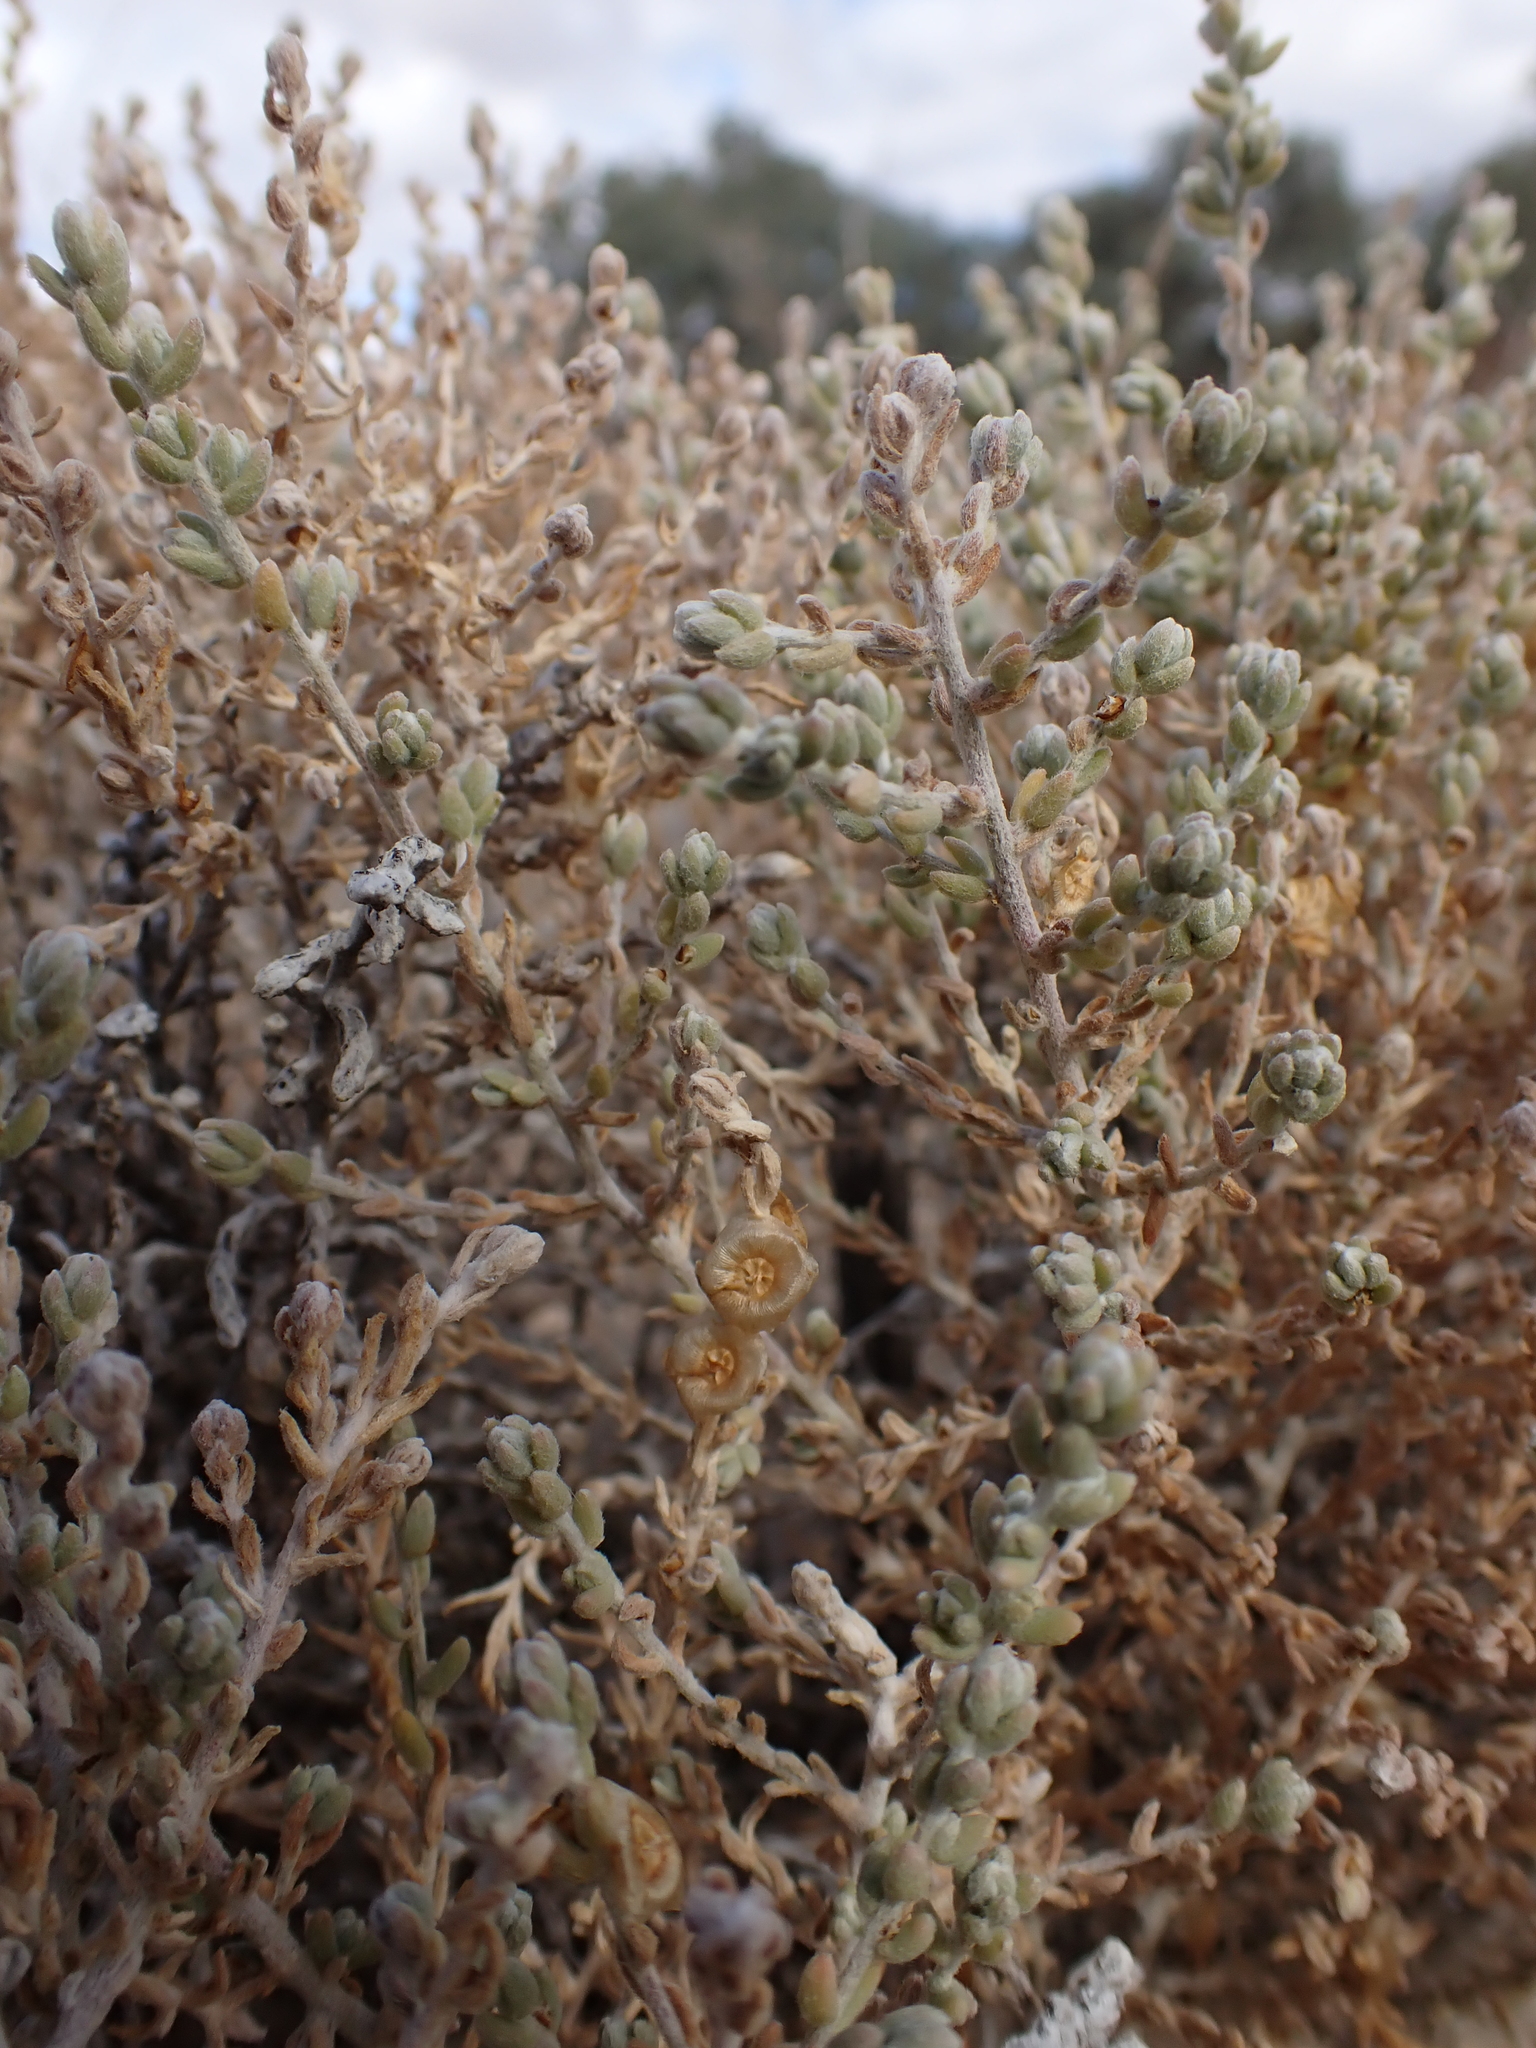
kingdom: Plantae
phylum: Tracheophyta
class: Magnoliopsida
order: Caryophyllales
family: Amaranthaceae
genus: Maireana
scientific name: Maireana appressa
